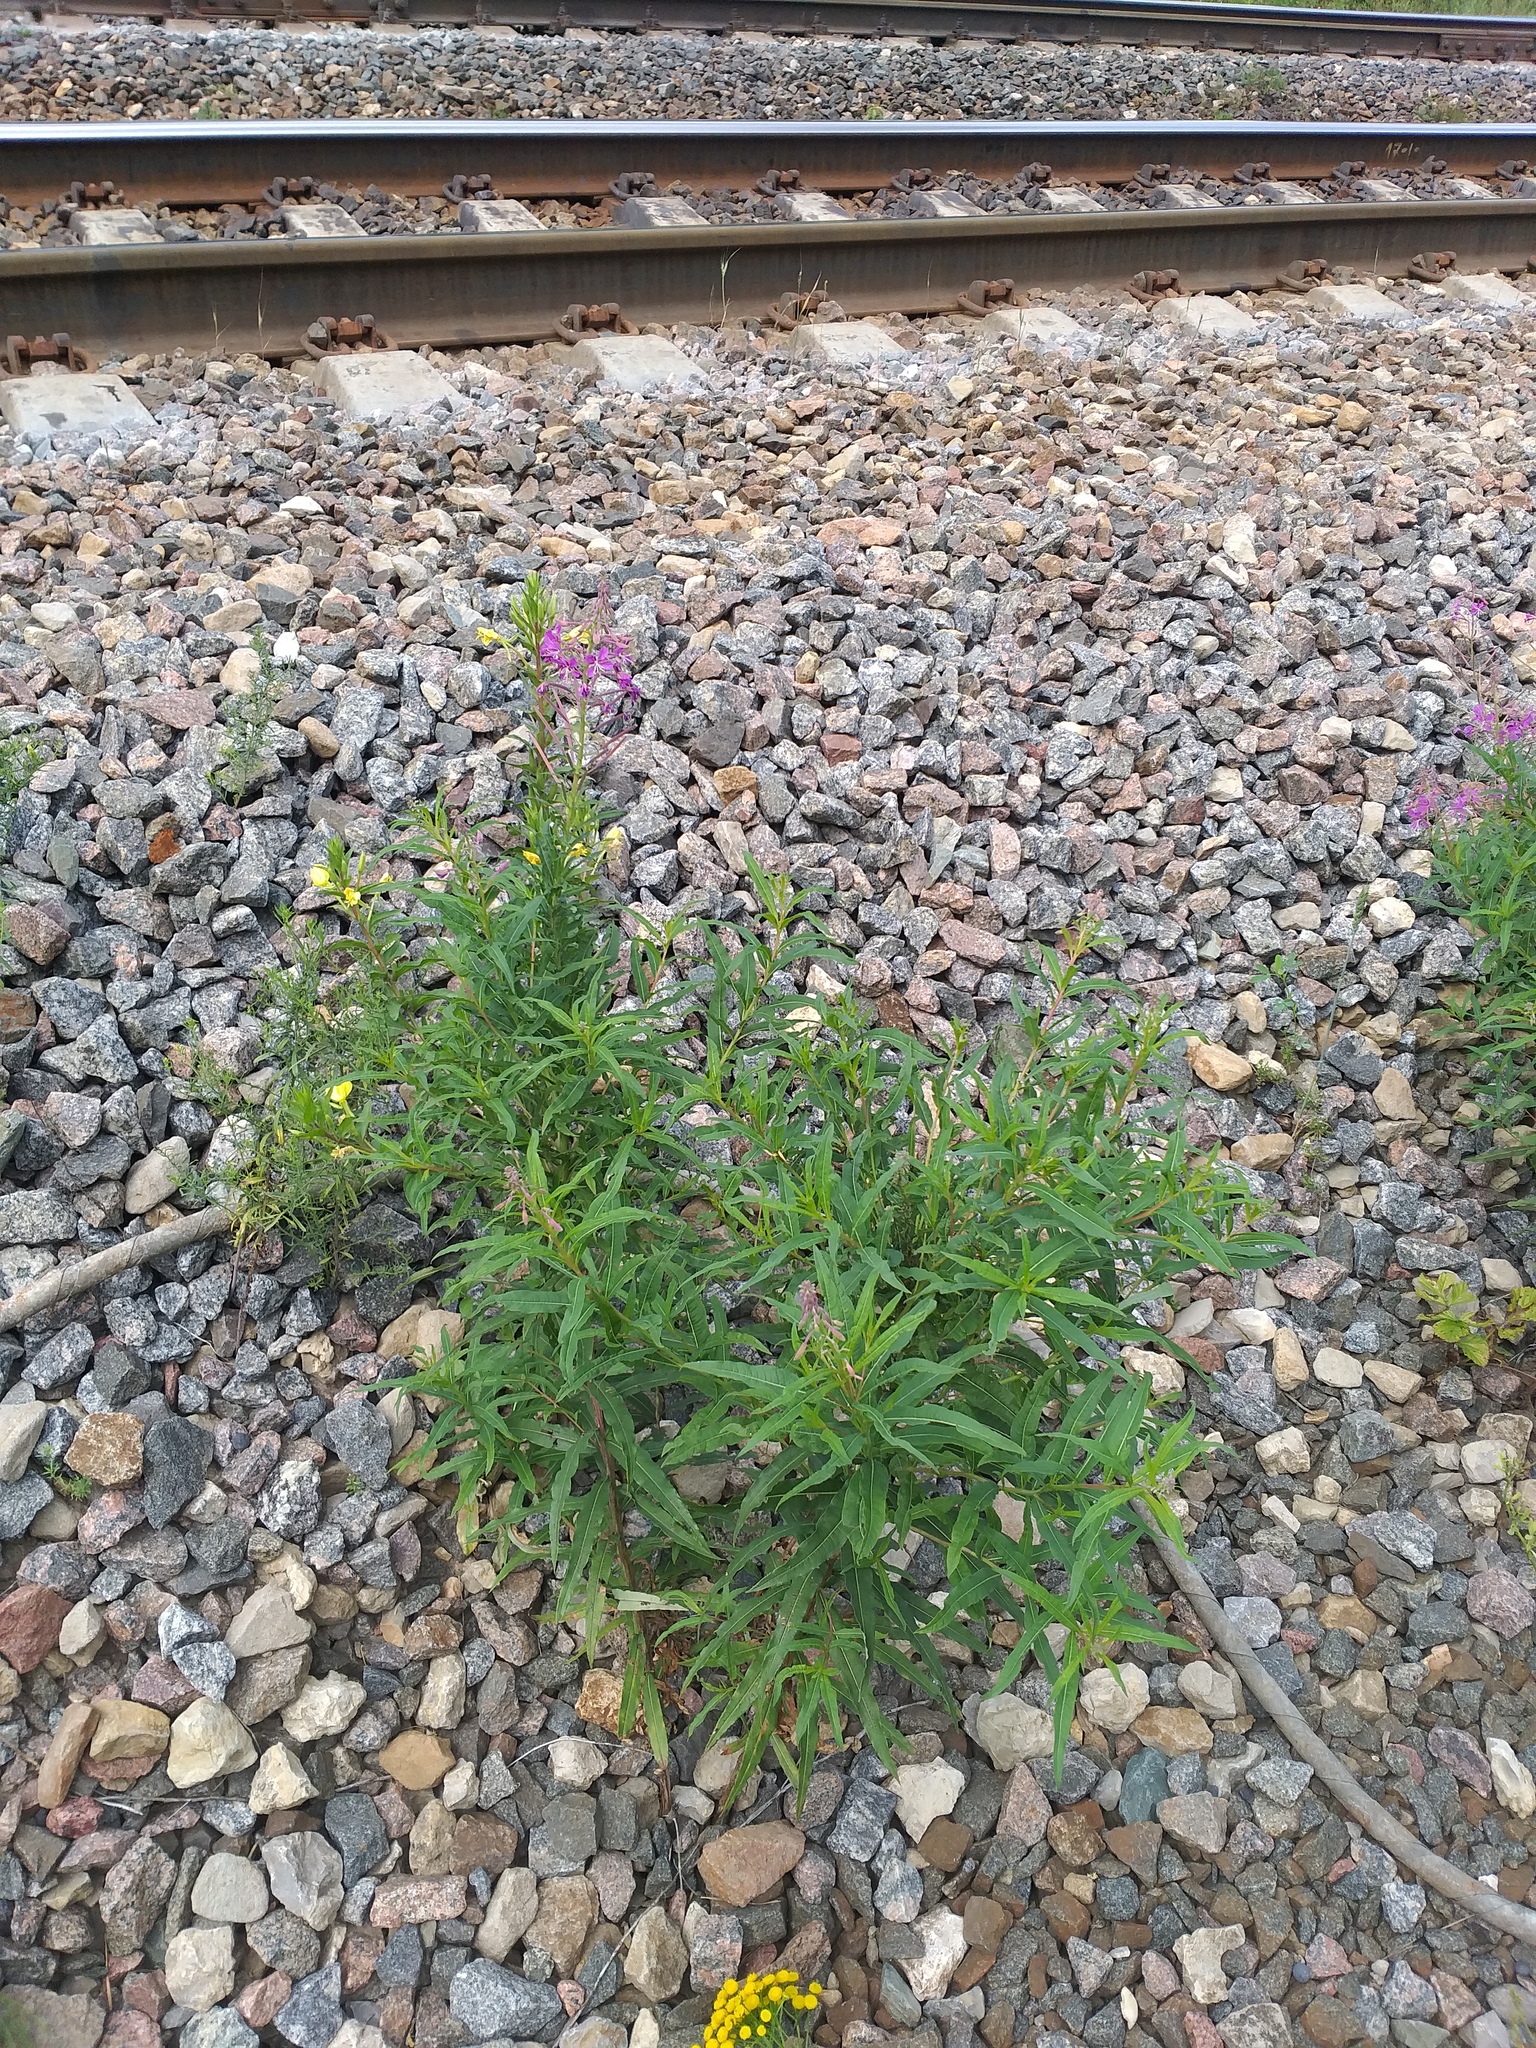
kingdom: Plantae
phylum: Tracheophyta
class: Magnoliopsida
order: Myrtales
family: Onagraceae
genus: Chamaenerion
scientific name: Chamaenerion angustifolium
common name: Fireweed
